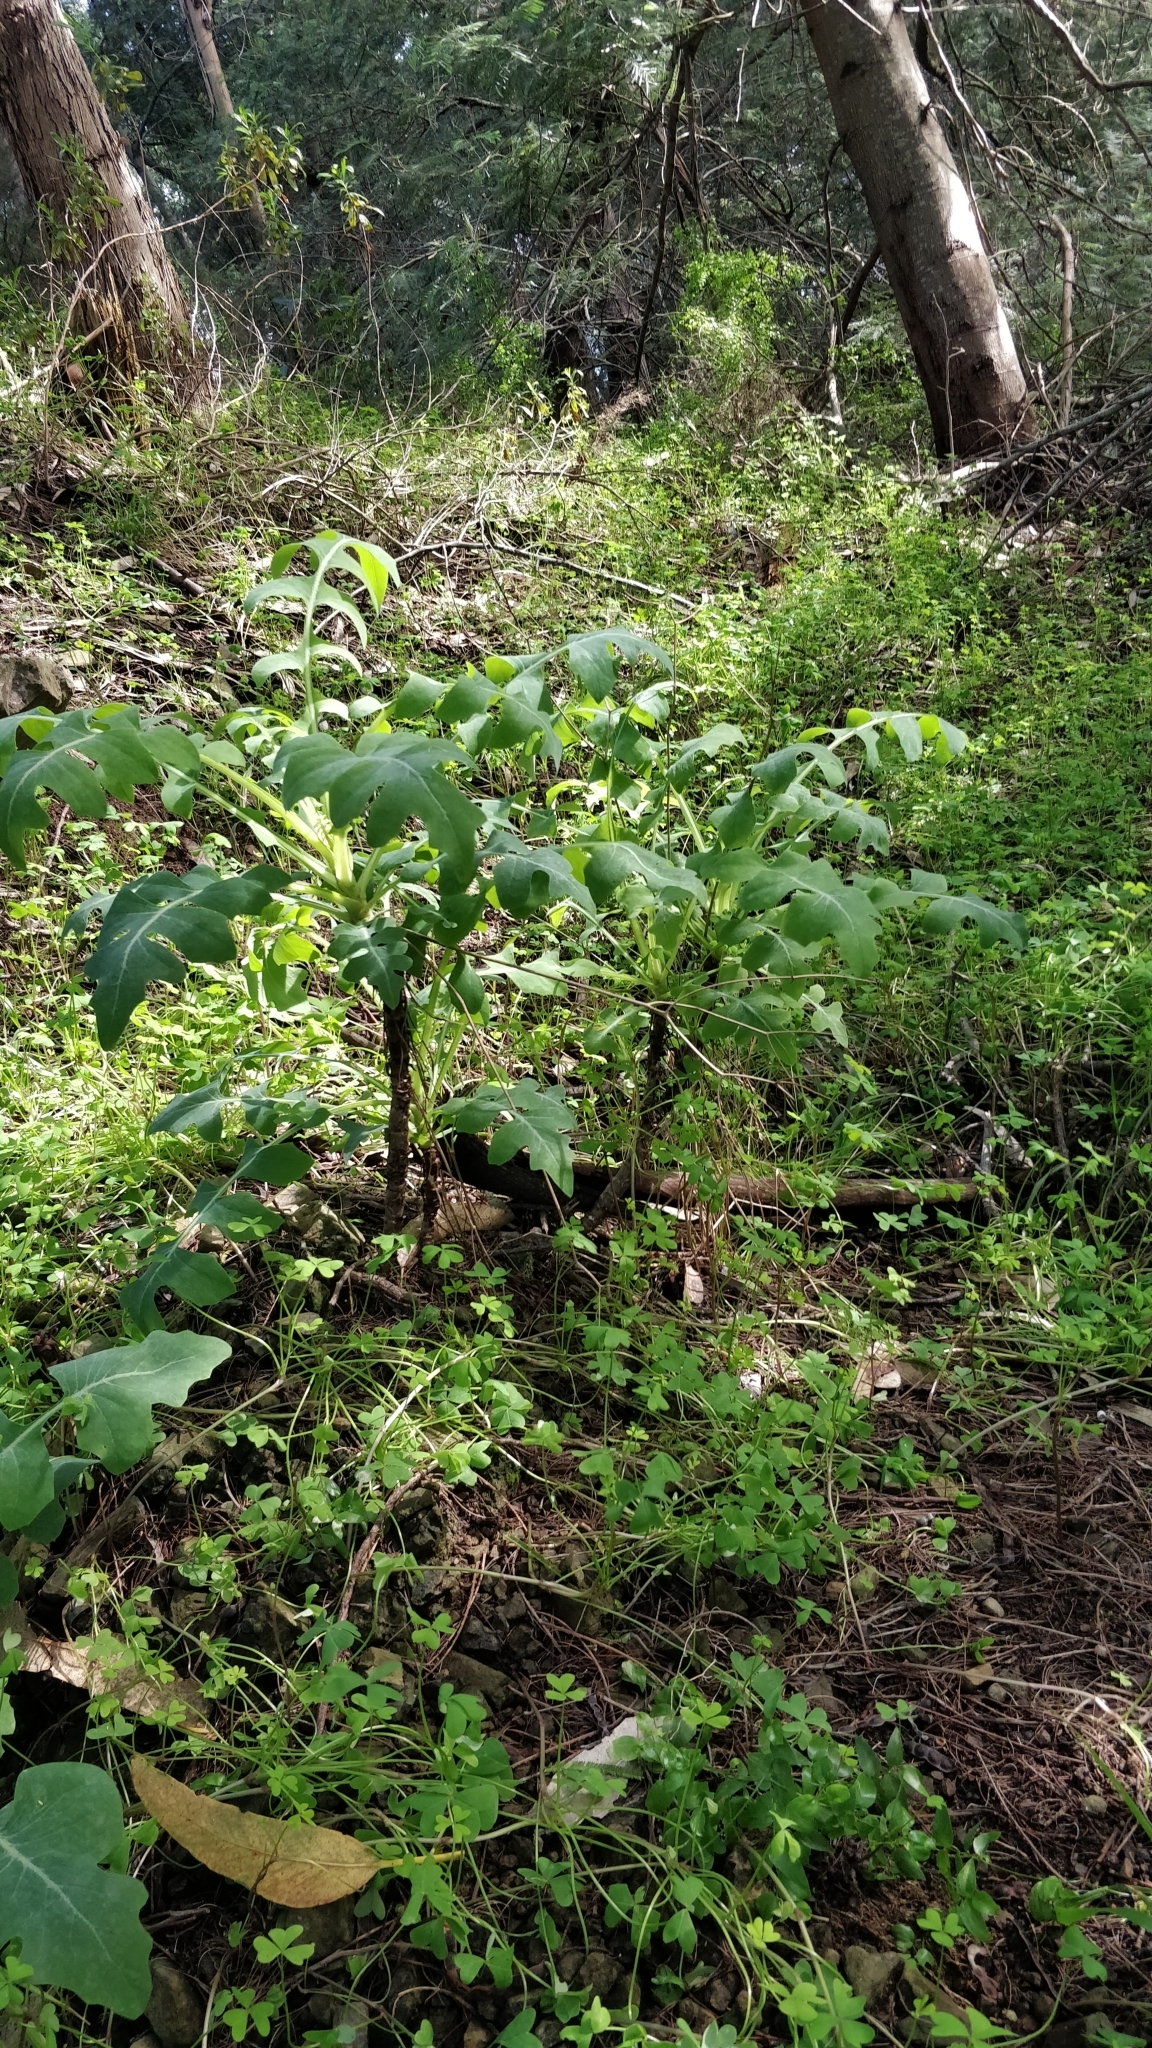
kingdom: Plantae
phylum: Tracheophyta
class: Magnoliopsida
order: Asterales
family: Asteraceae
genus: Sonchus
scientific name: Sonchus fruticosus
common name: Shrubby sow-thistle
